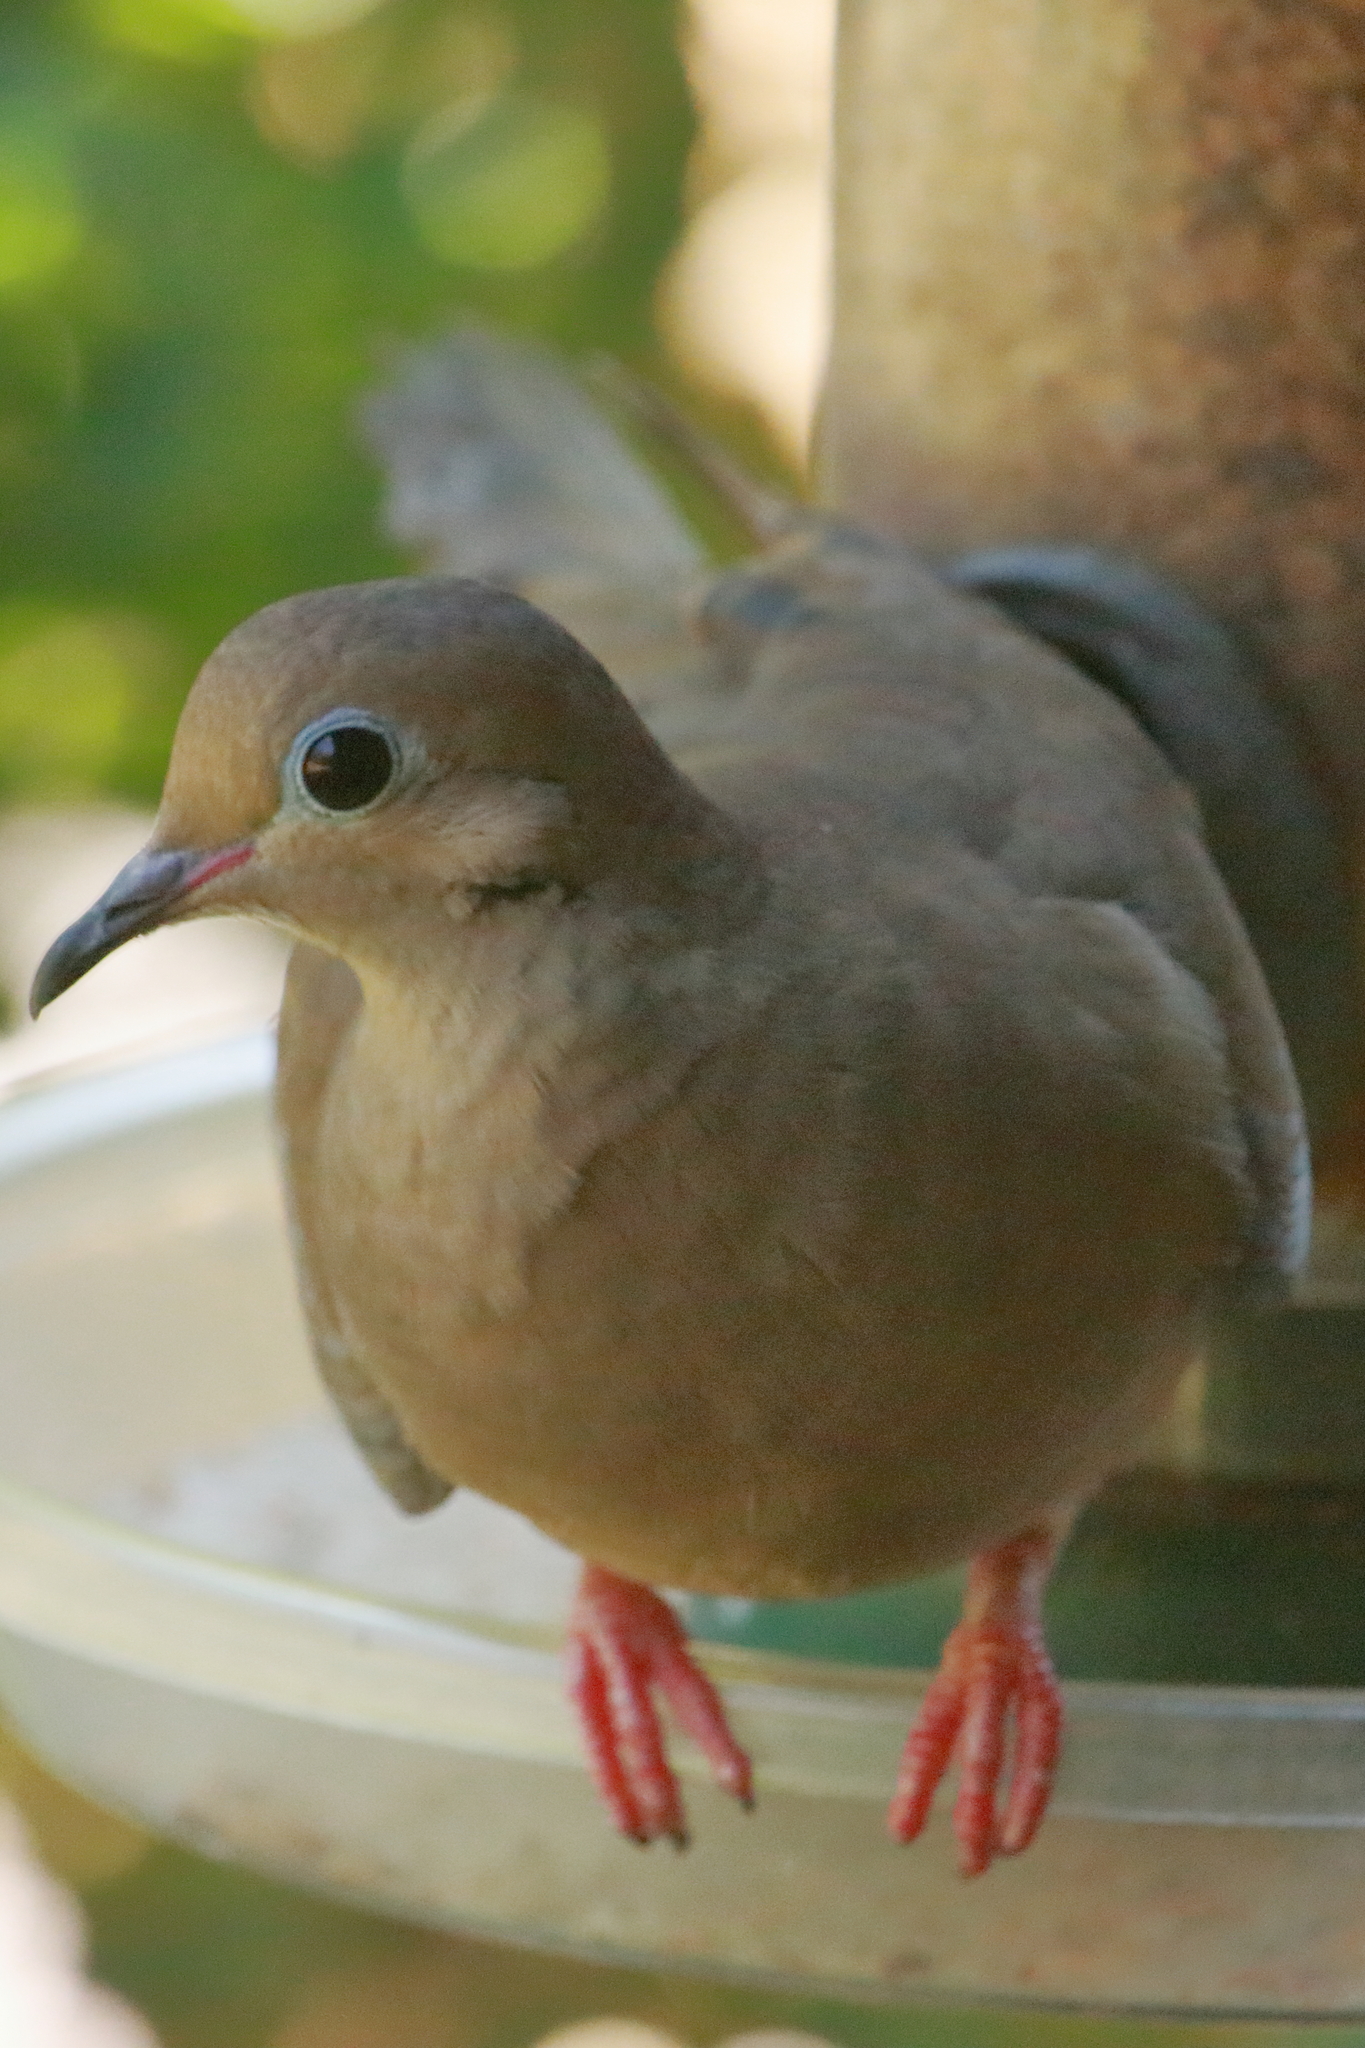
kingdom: Animalia
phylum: Chordata
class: Aves
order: Columbiformes
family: Columbidae
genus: Zenaida
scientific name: Zenaida macroura
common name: Mourning dove
